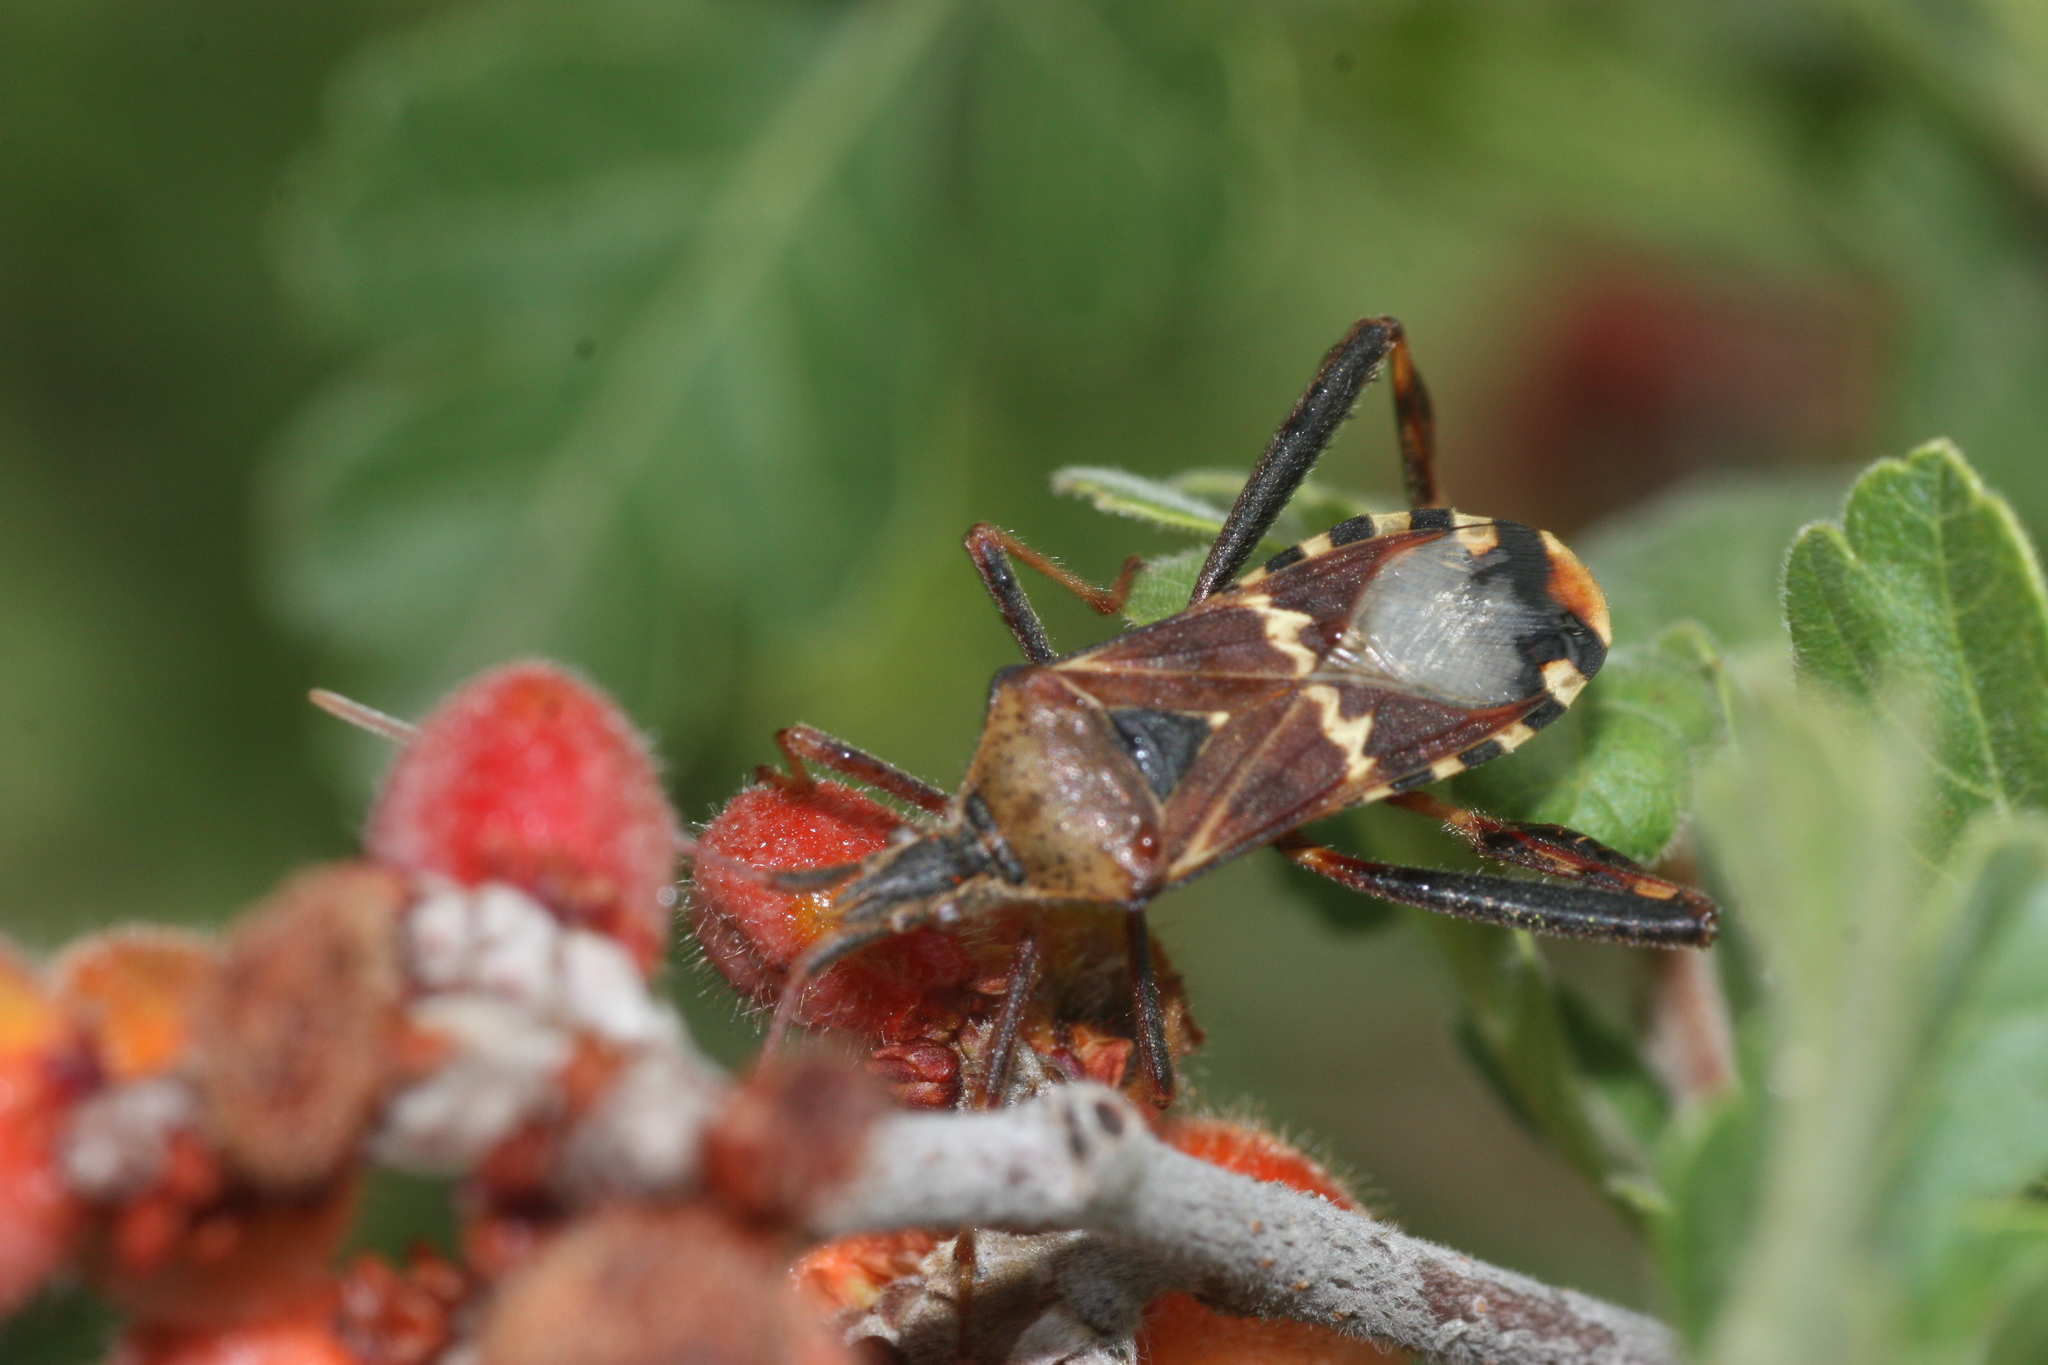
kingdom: Animalia
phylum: Arthropoda
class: Insecta
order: Hemiptera
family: Coreidae
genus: Leptoglossus
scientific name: Leptoglossus clypealis
